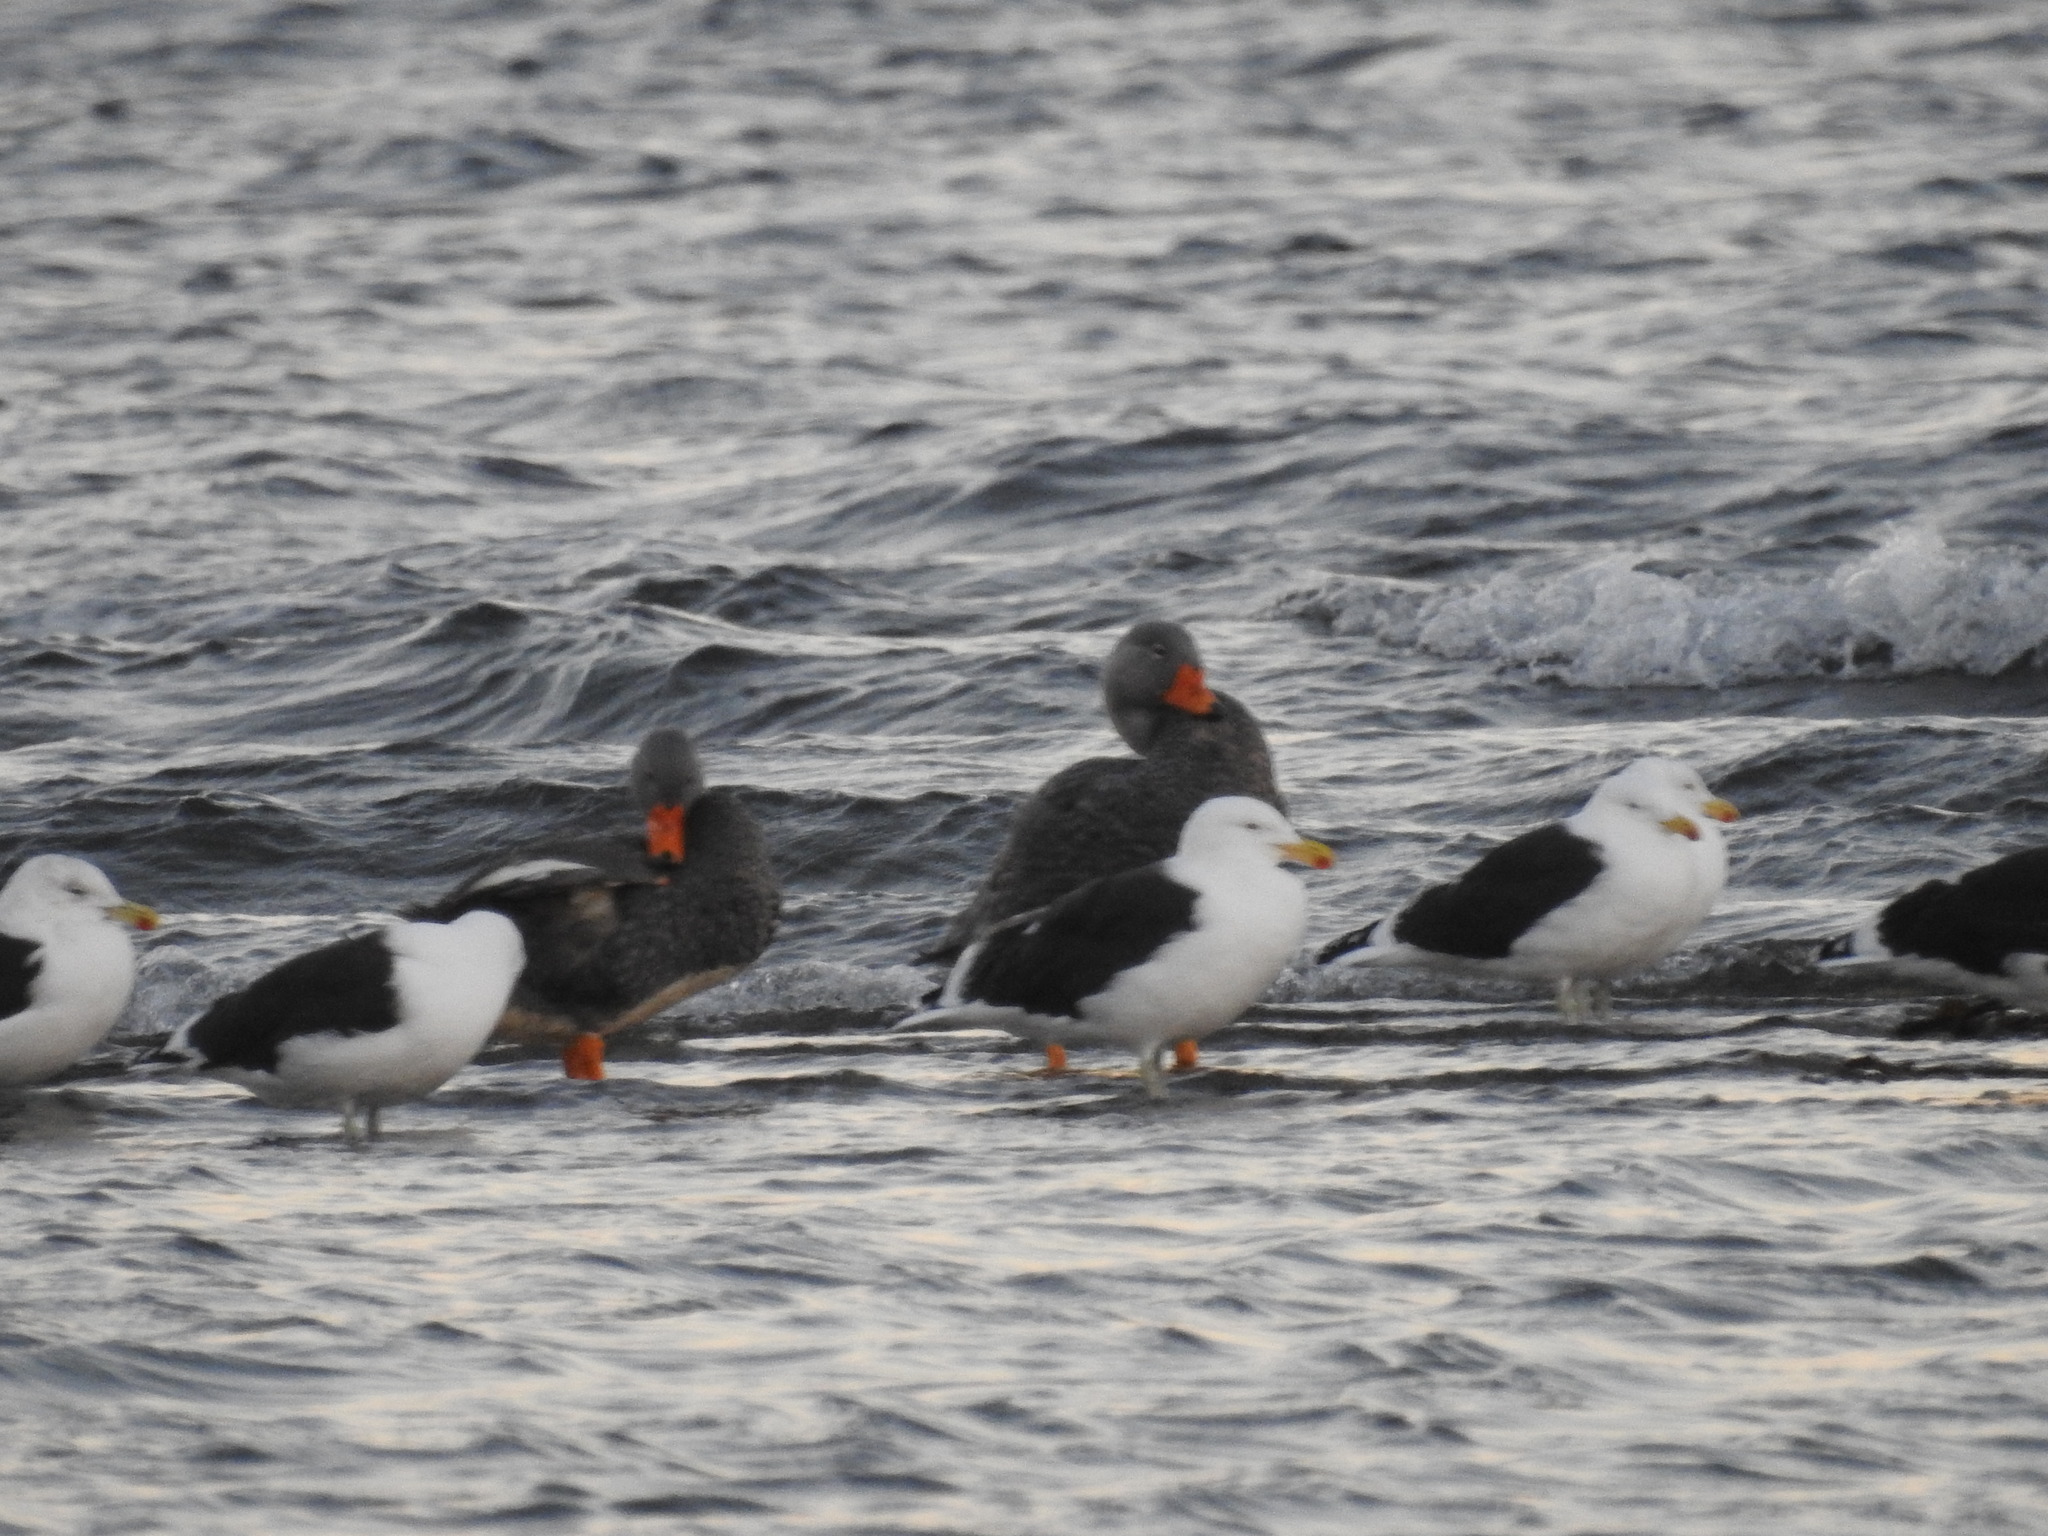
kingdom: Animalia
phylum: Chordata
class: Aves
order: Anseriformes
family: Anatidae
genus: Tachyeres
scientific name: Tachyeres pteneres
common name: Fuegian steamer duck
